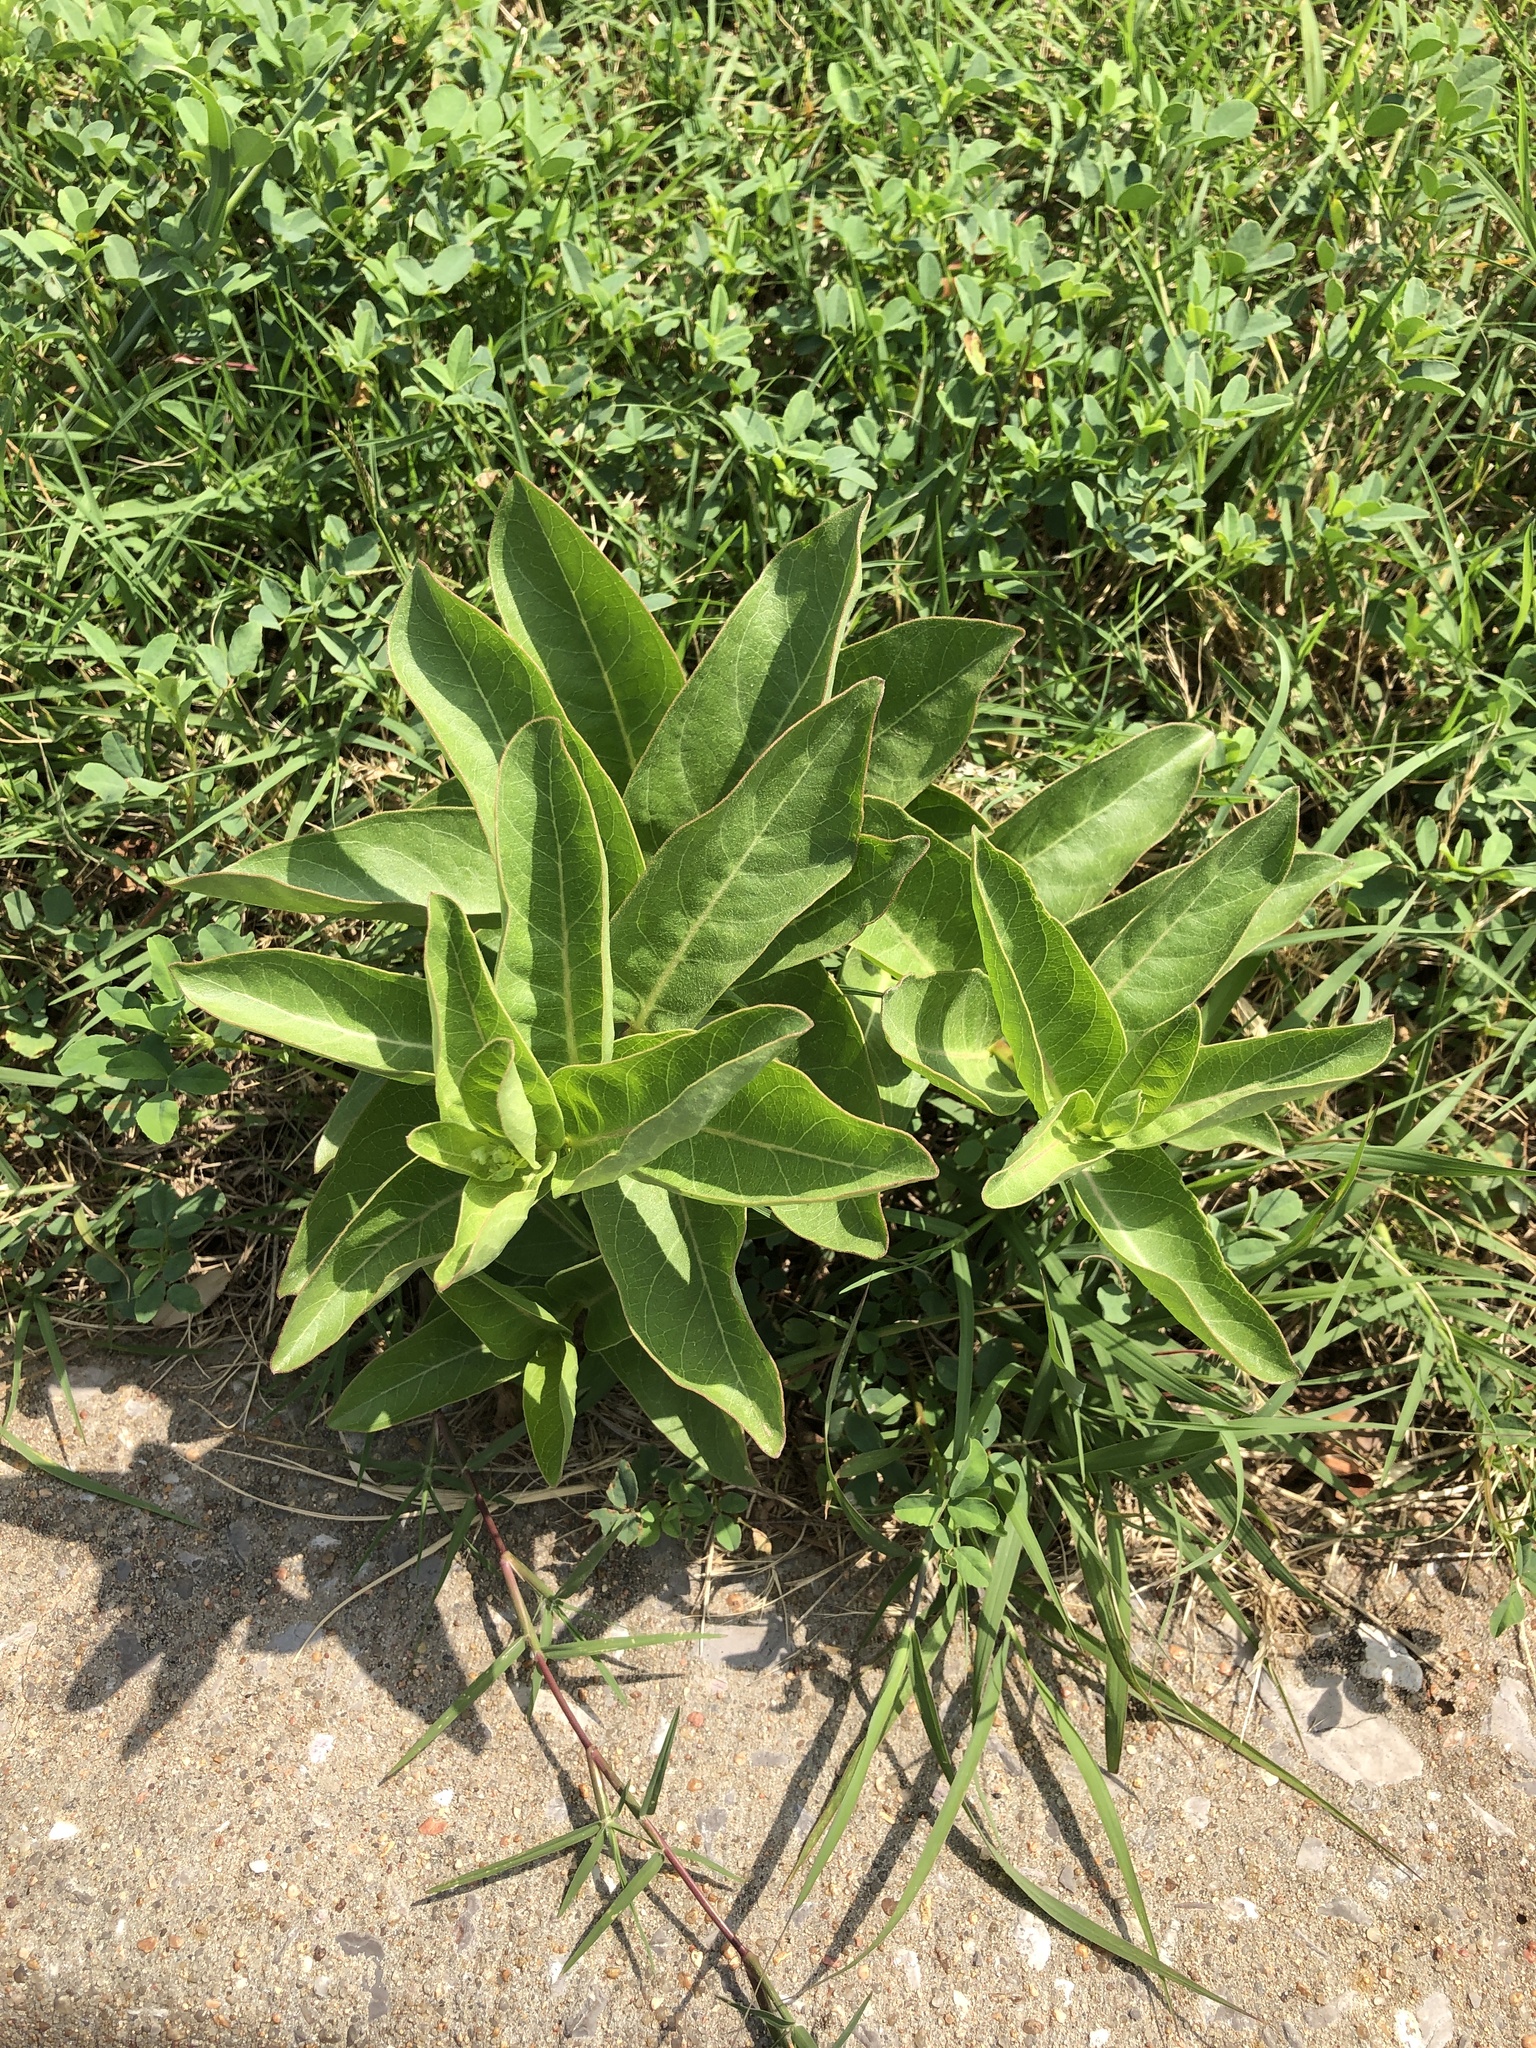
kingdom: Plantae
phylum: Tracheophyta
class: Magnoliopsida
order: Gentianales
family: Apocynaceae
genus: Asclepias
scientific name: Asclepias viridis
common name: Antelope-horns
